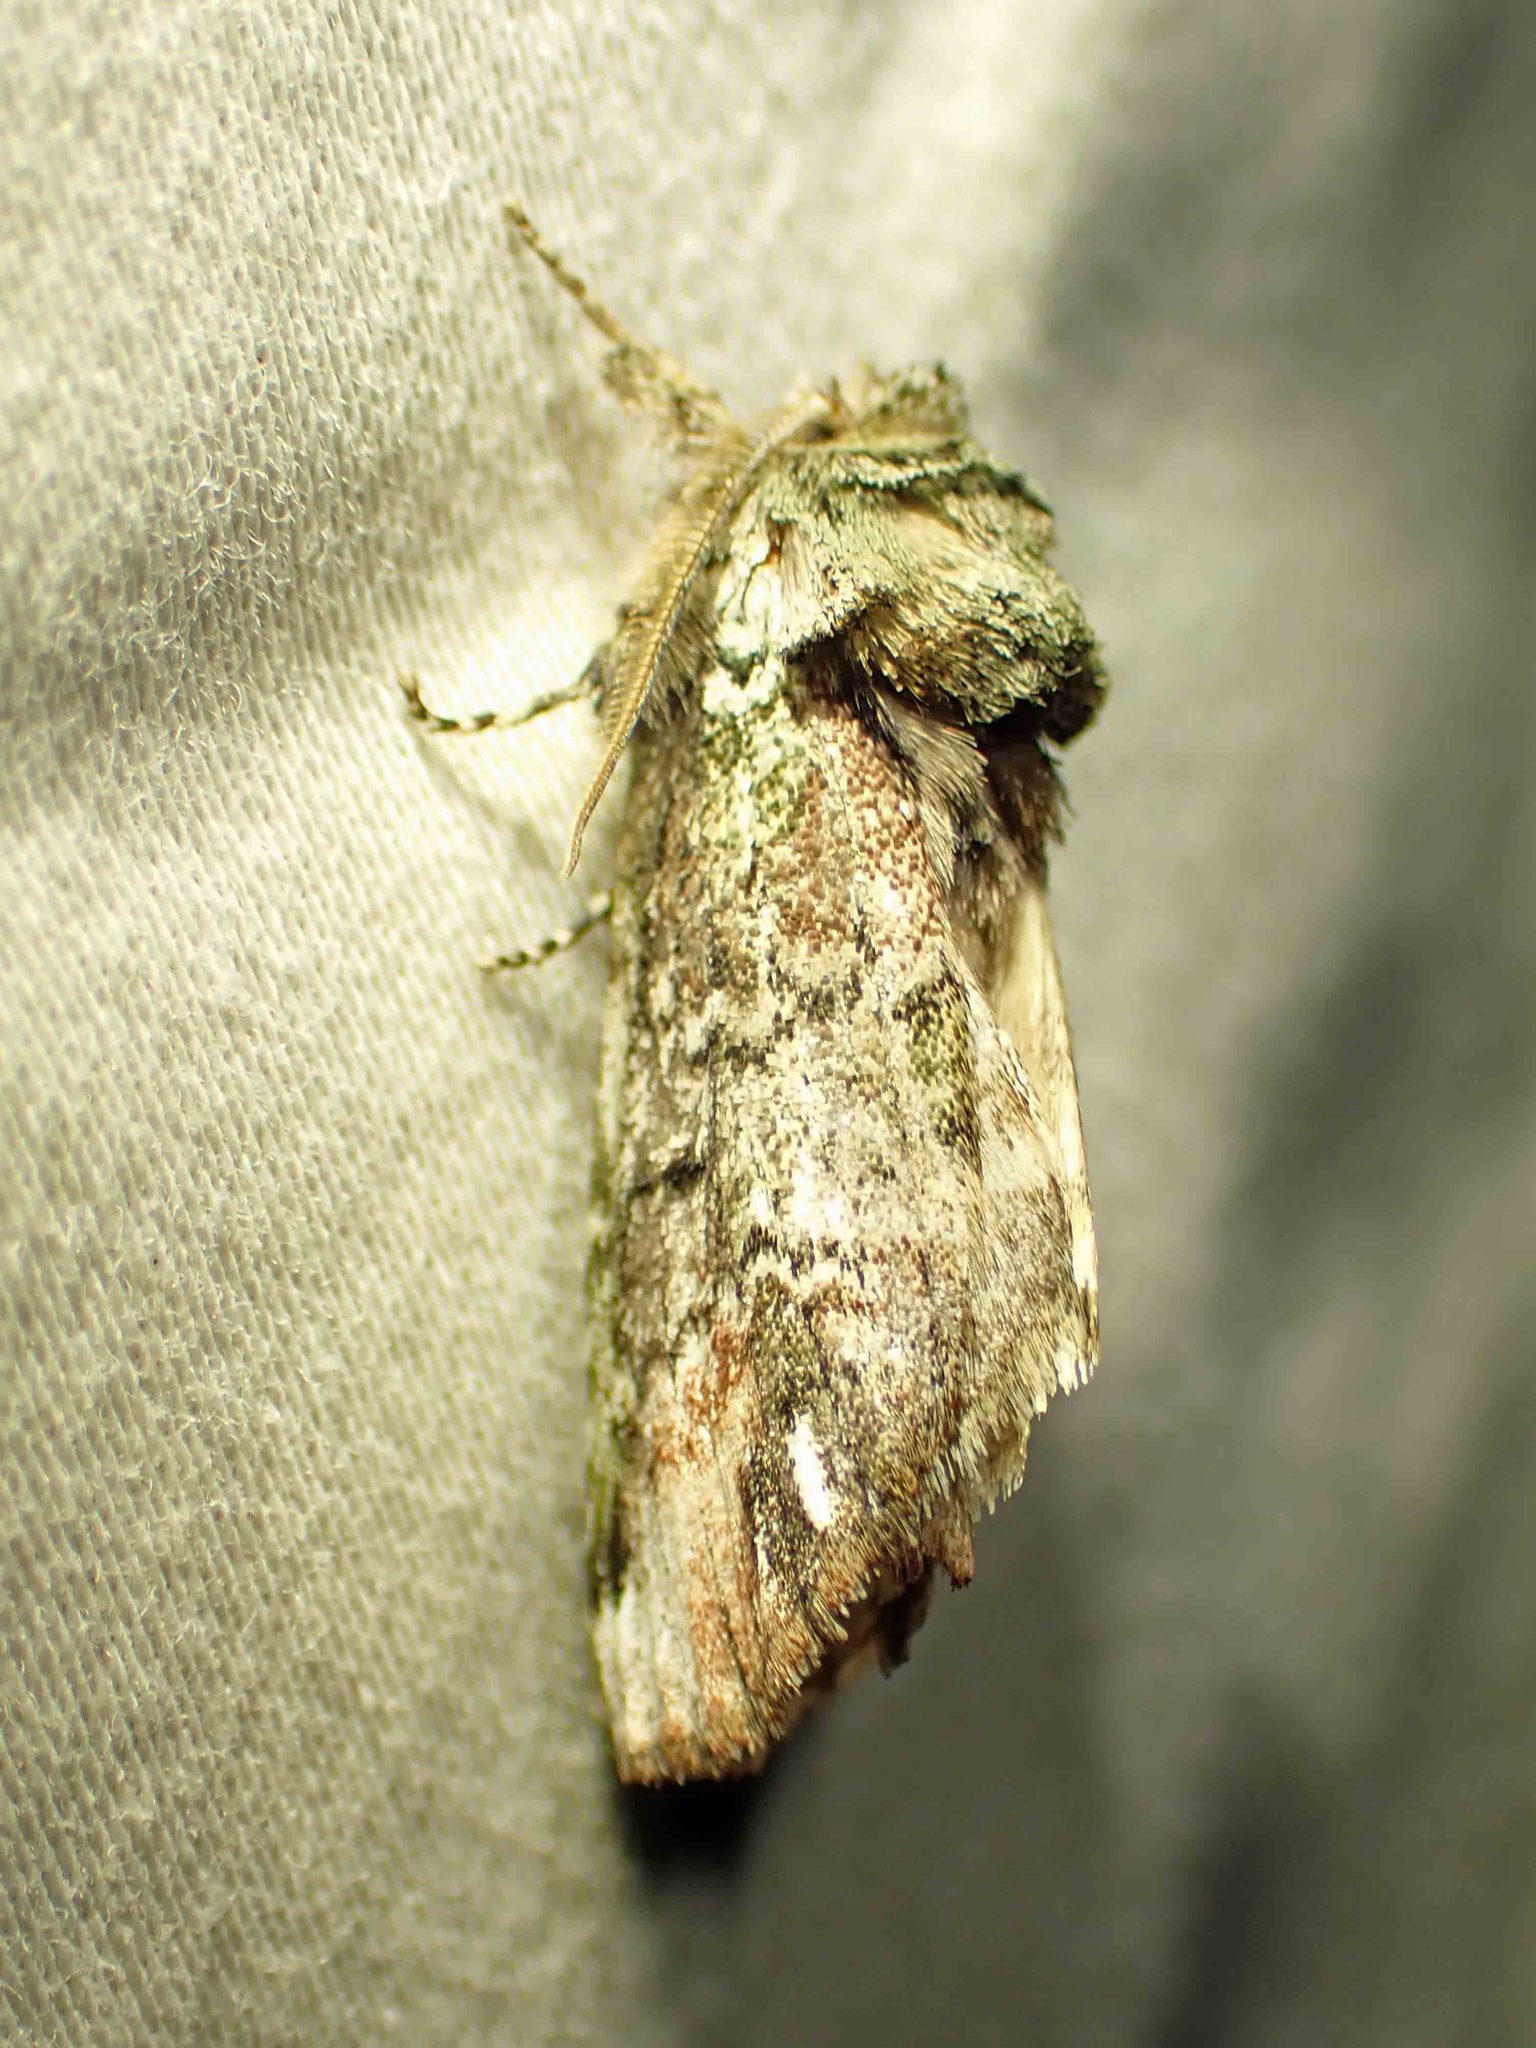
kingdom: Animalia
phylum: Arthropoda
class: Insecta
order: Lepidoptera
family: Notodontidae
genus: Schizura
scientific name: Schizura
